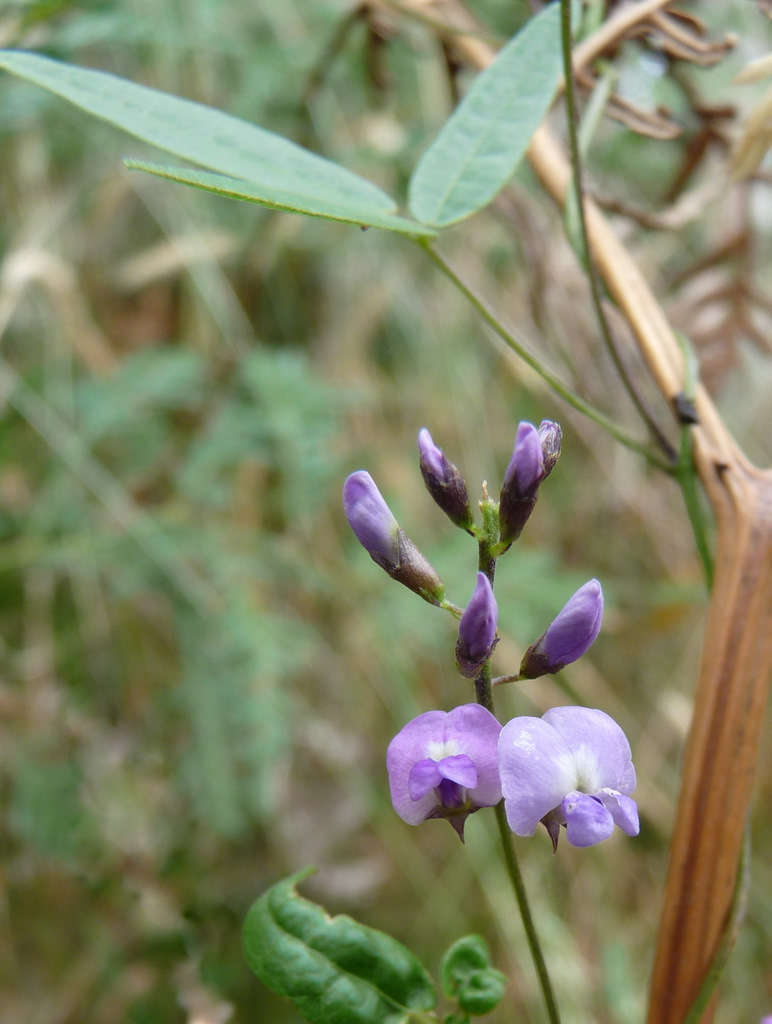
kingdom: Plantae
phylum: Tracheophyta
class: Magnoliopsida
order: Fabales
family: Fabaceae
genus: Glycine
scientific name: Glycine clandestina
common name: Twining glycine
